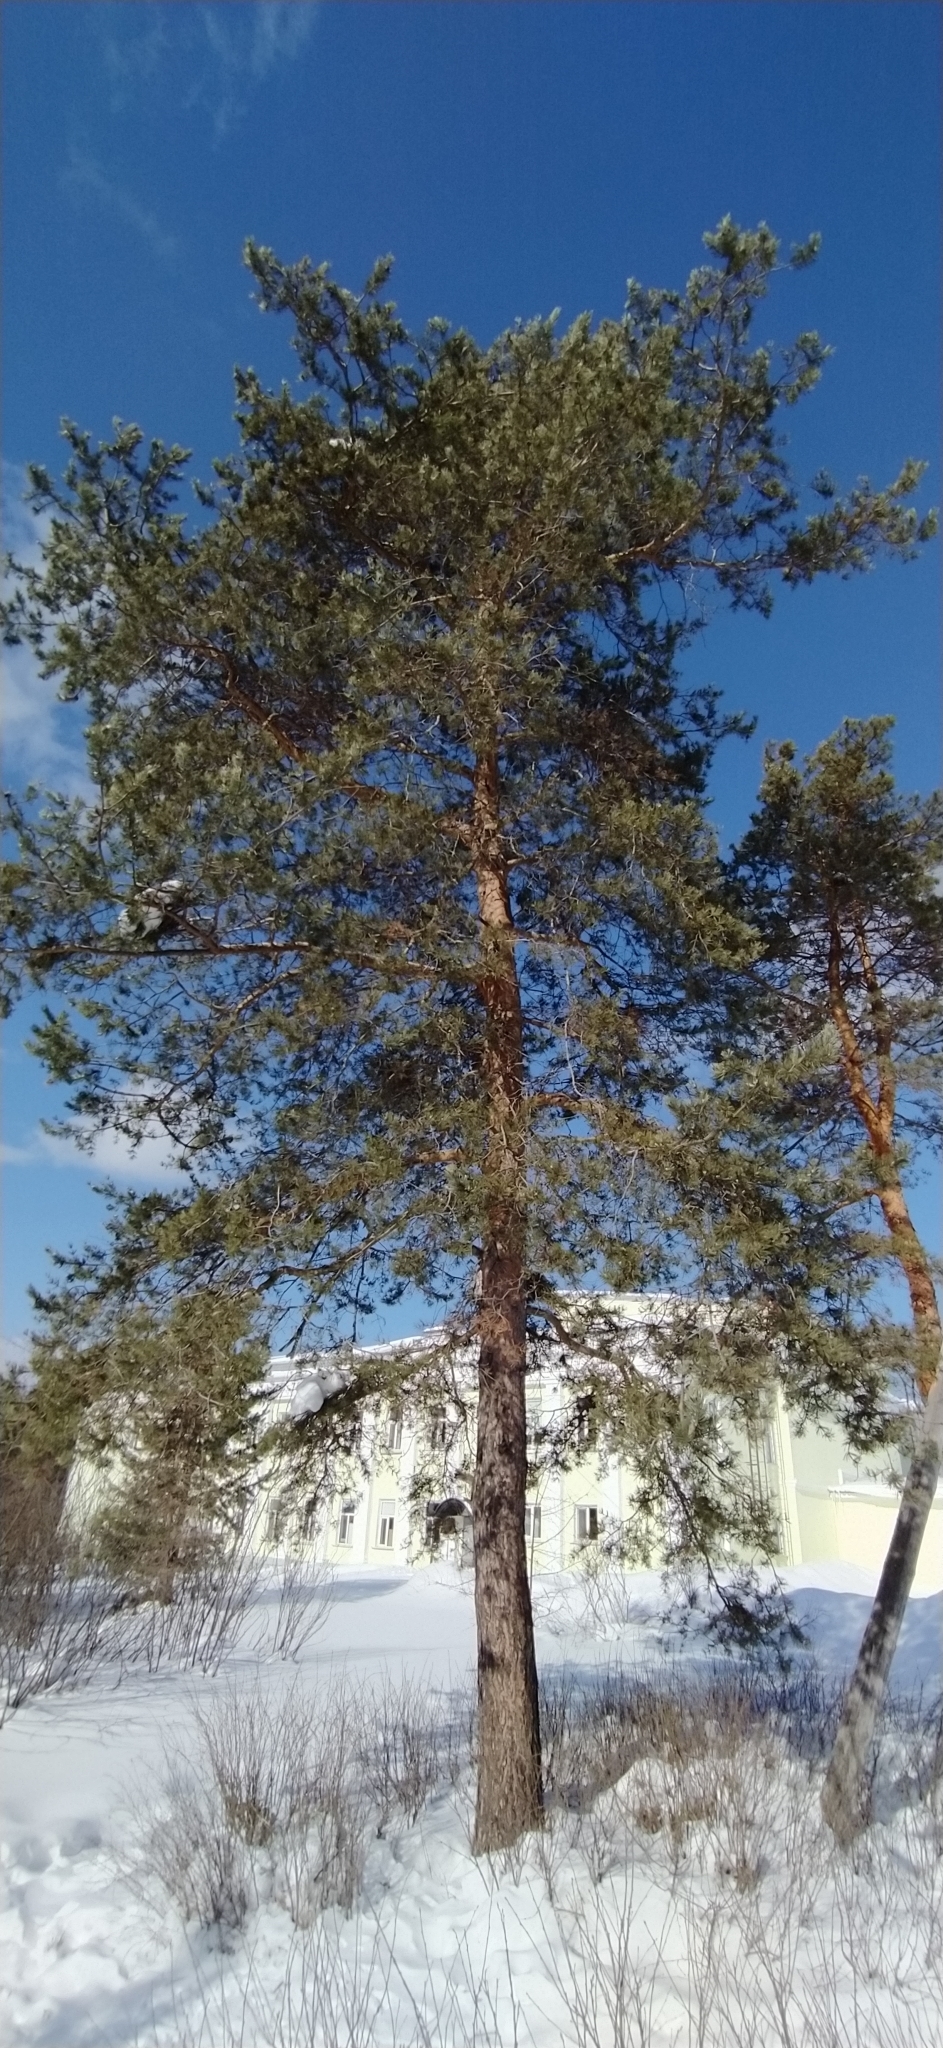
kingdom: Plantae
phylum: Tracheophyta
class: Pinopsida
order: Pinales
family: Pinaceae
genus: Pinus
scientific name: Pinus sylvestris
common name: Scots pine
